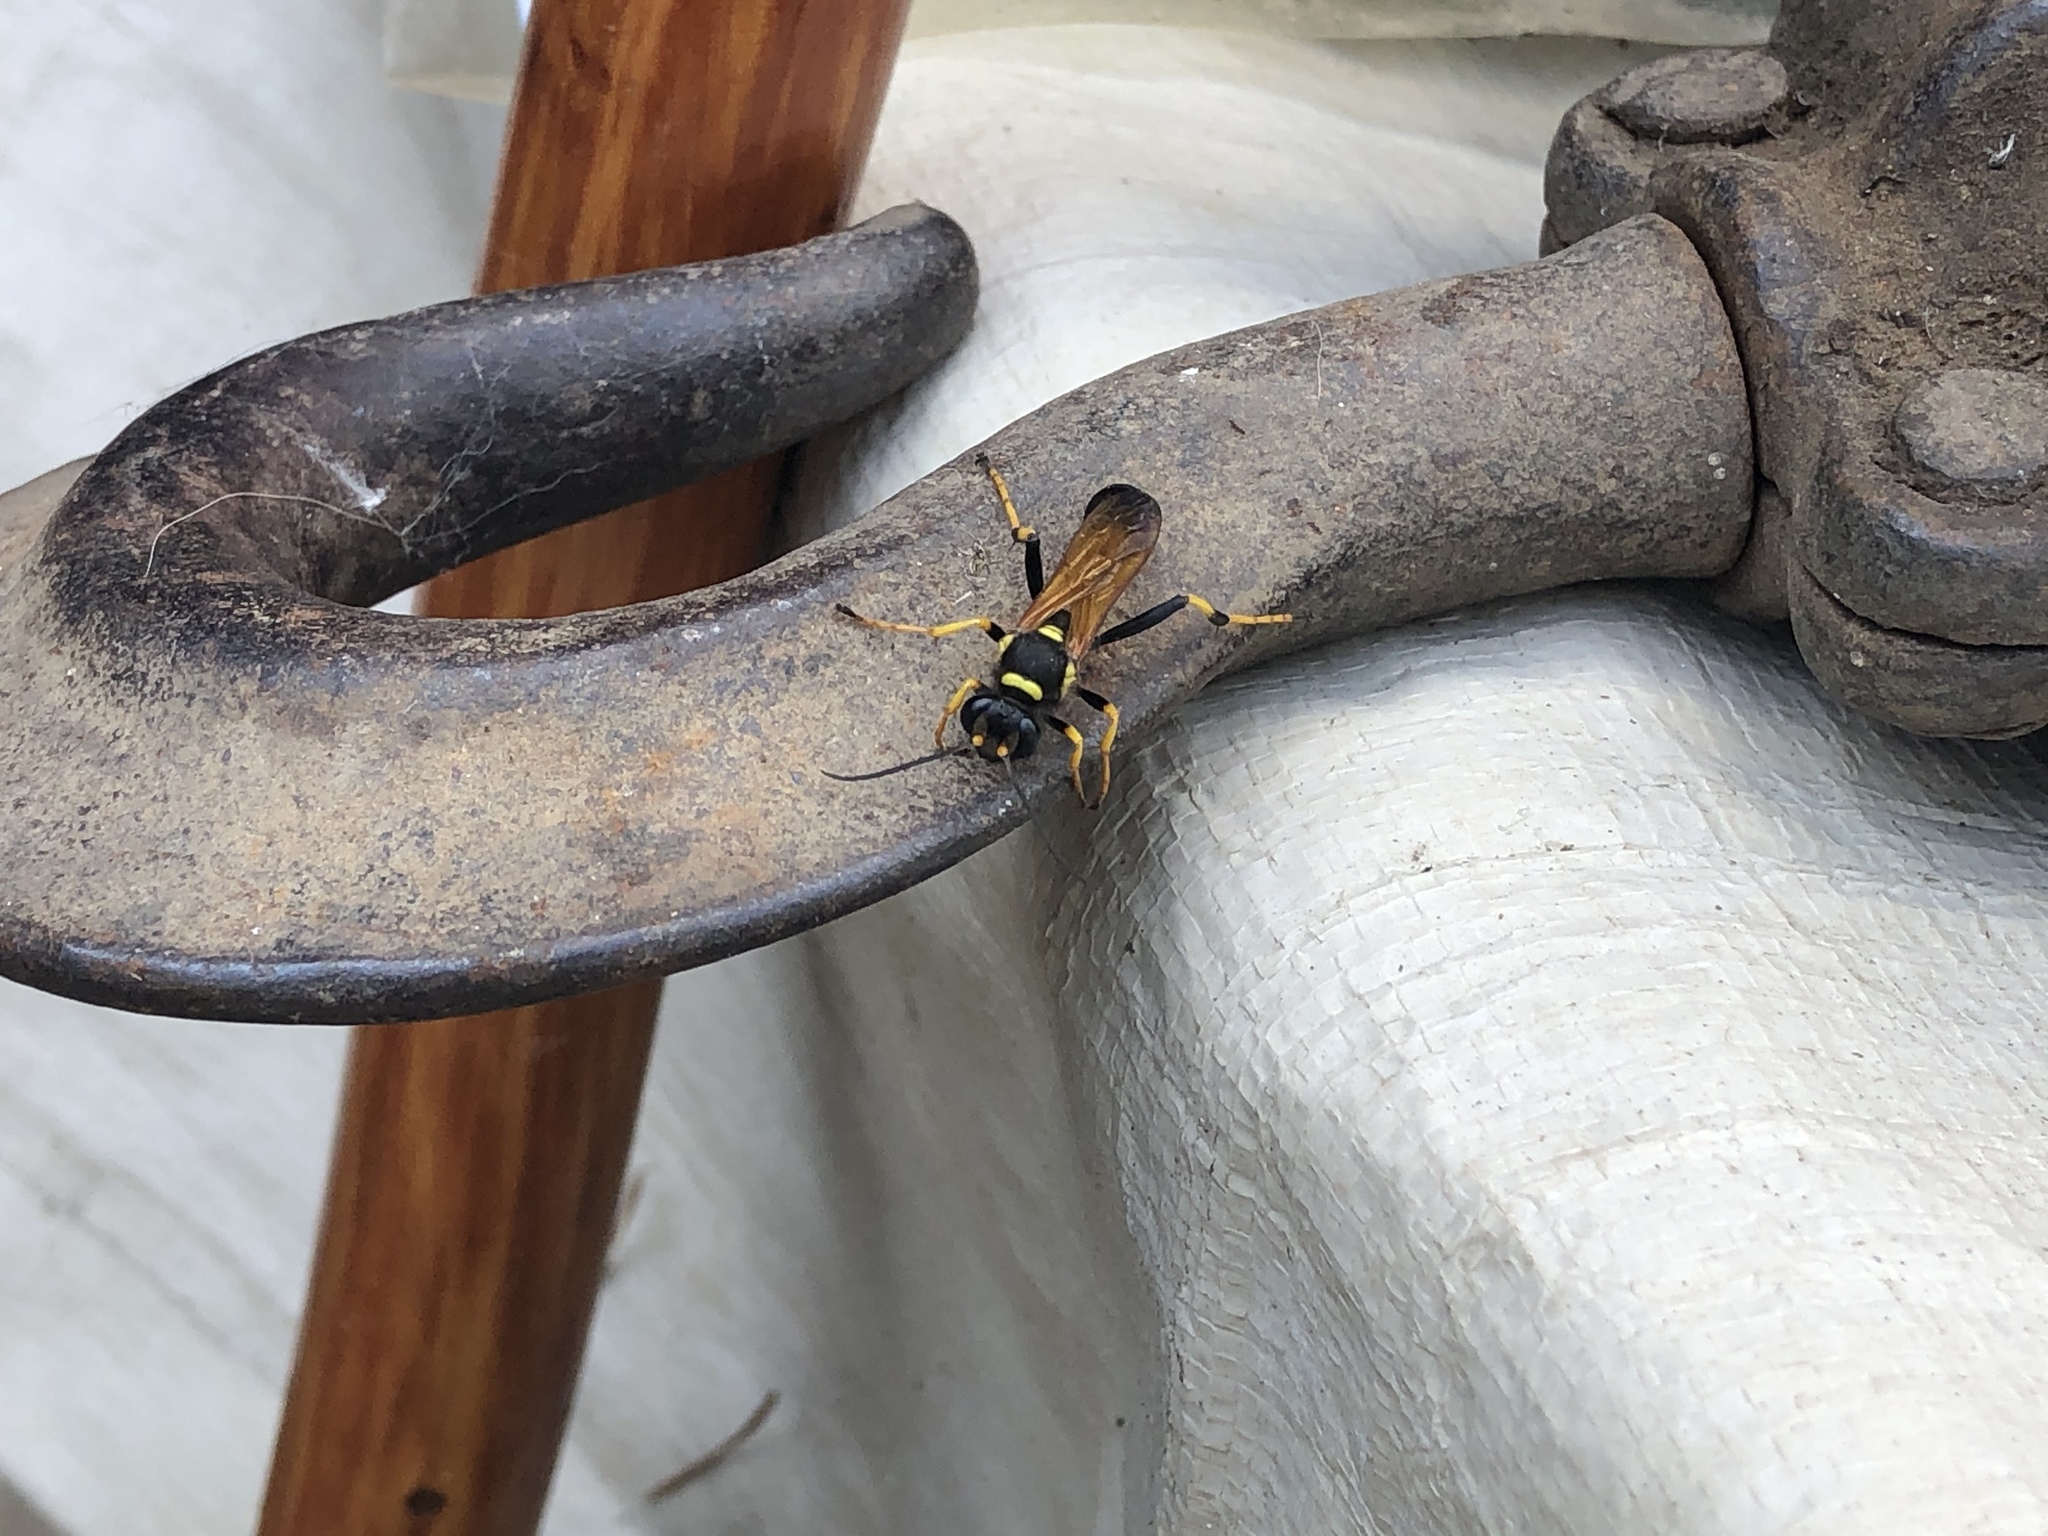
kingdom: Animalia
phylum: Arthropoda
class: Insecta
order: Hymenoptera
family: Sphecidae
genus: Sceliphron
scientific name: Sceliphron caementarium
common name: Mud dauber
